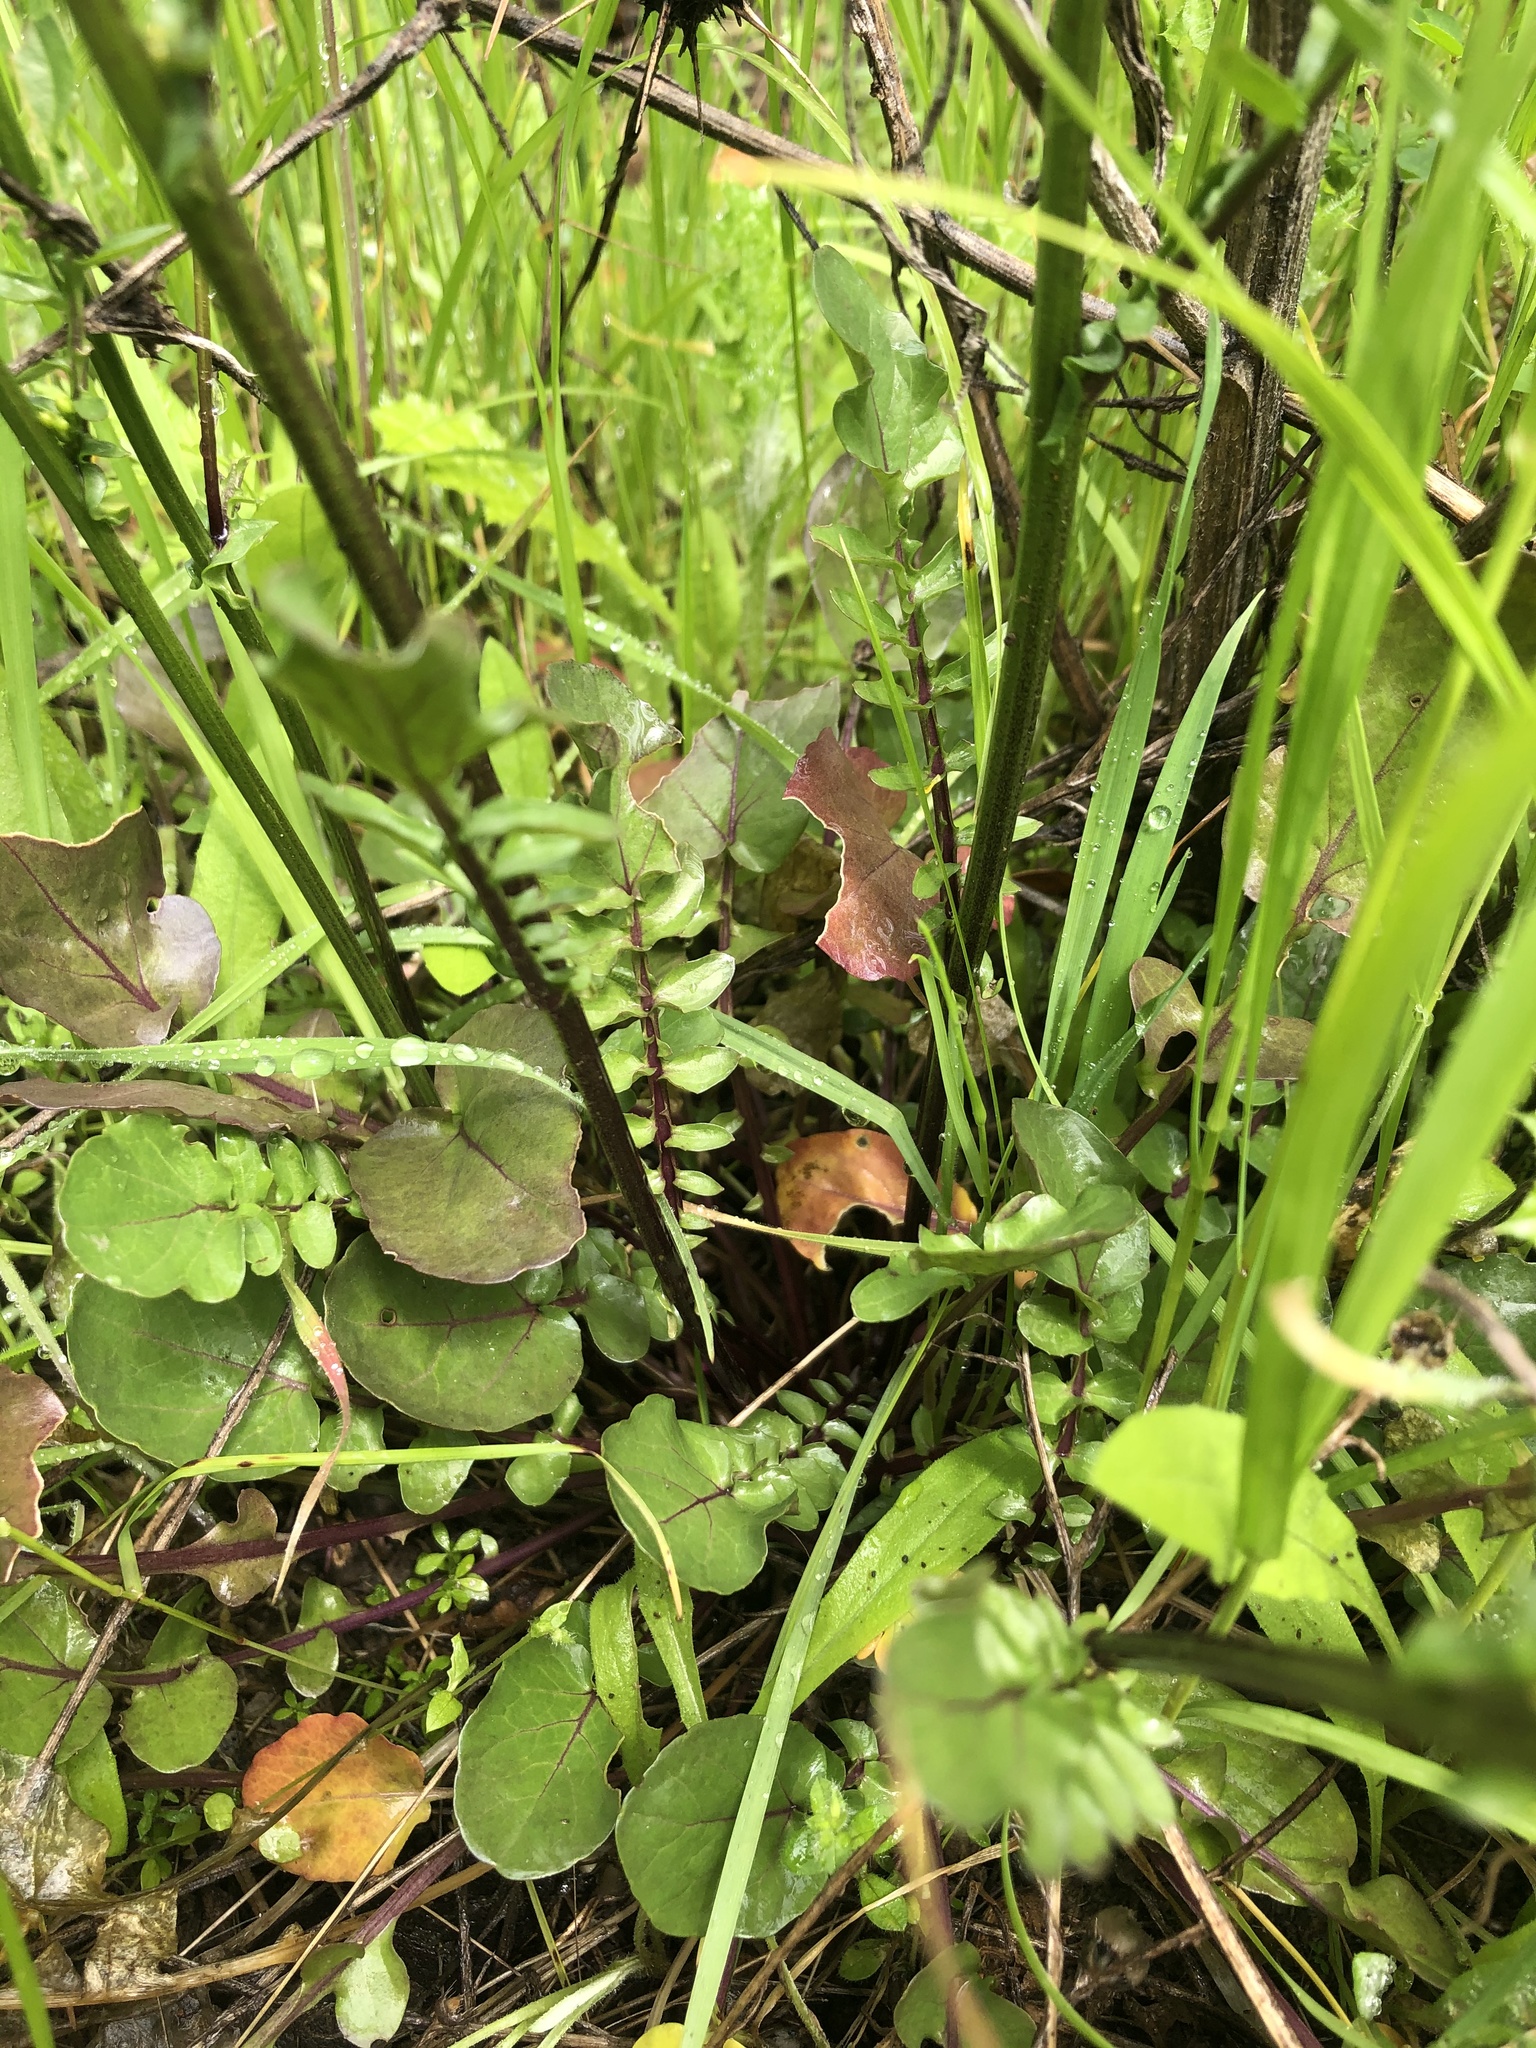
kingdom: Plantae
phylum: Tracheophyta
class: Magnoliopsida
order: Brassicales
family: Brassicaceae
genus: Barbarea
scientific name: Barbarea orthoceras
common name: American wintercress
